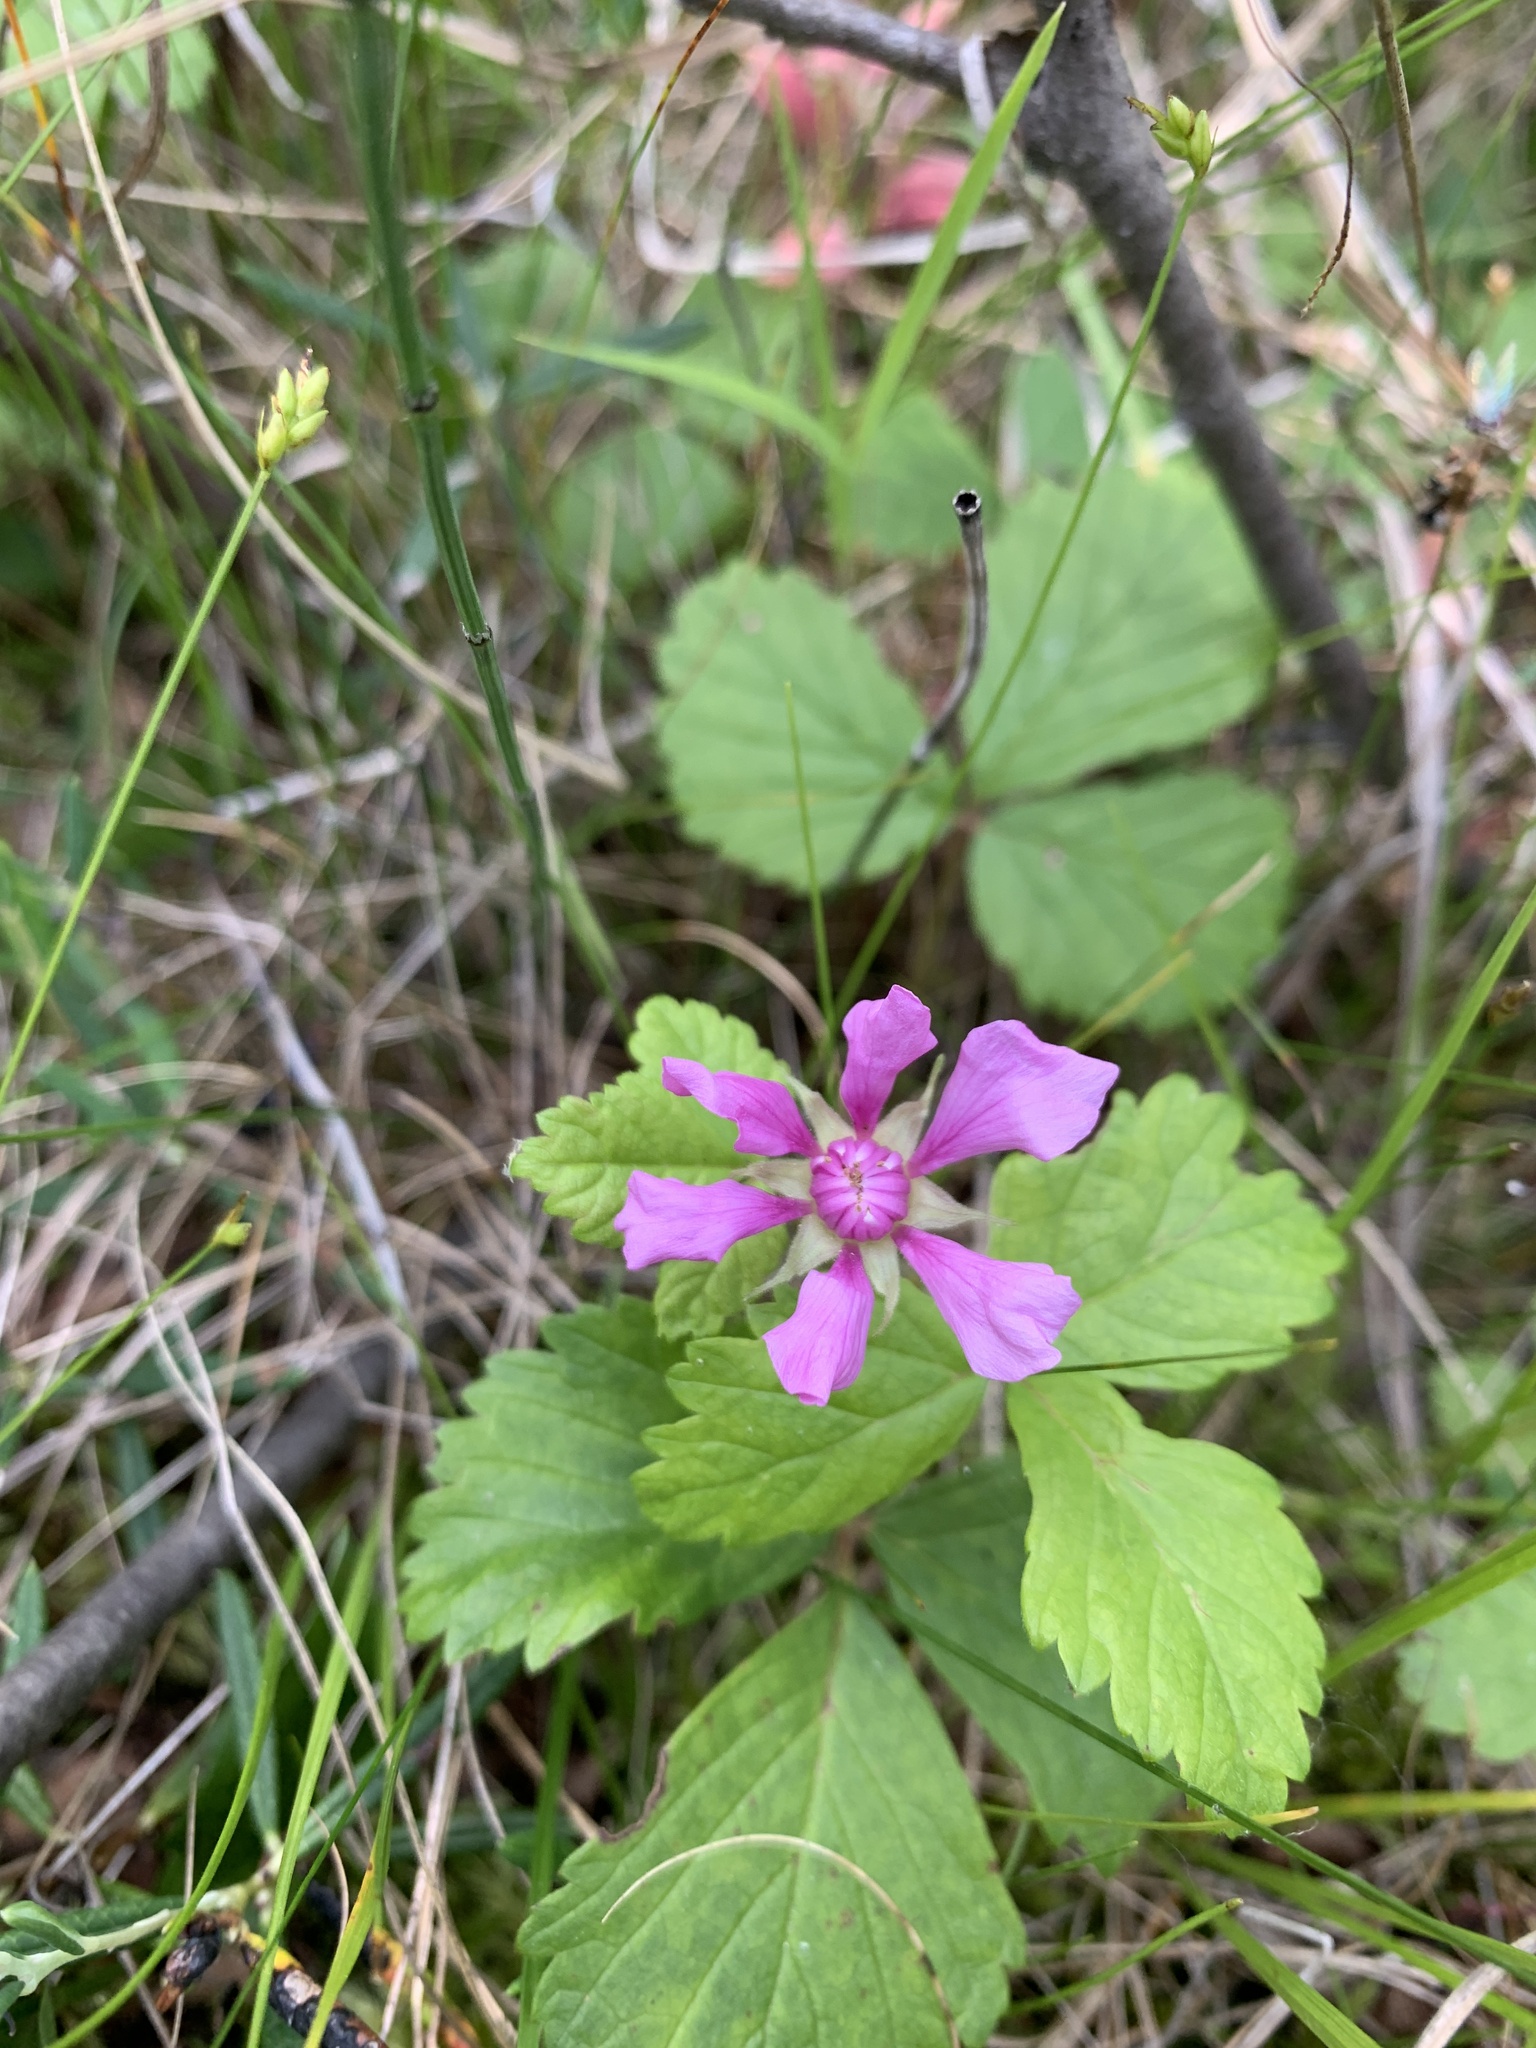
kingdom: Plantae
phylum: Tracheophyta
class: Magnoliopsida
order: Rosales
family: Rosaceae
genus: Rubus
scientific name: Rubus arcticus
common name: Arctic bramble
